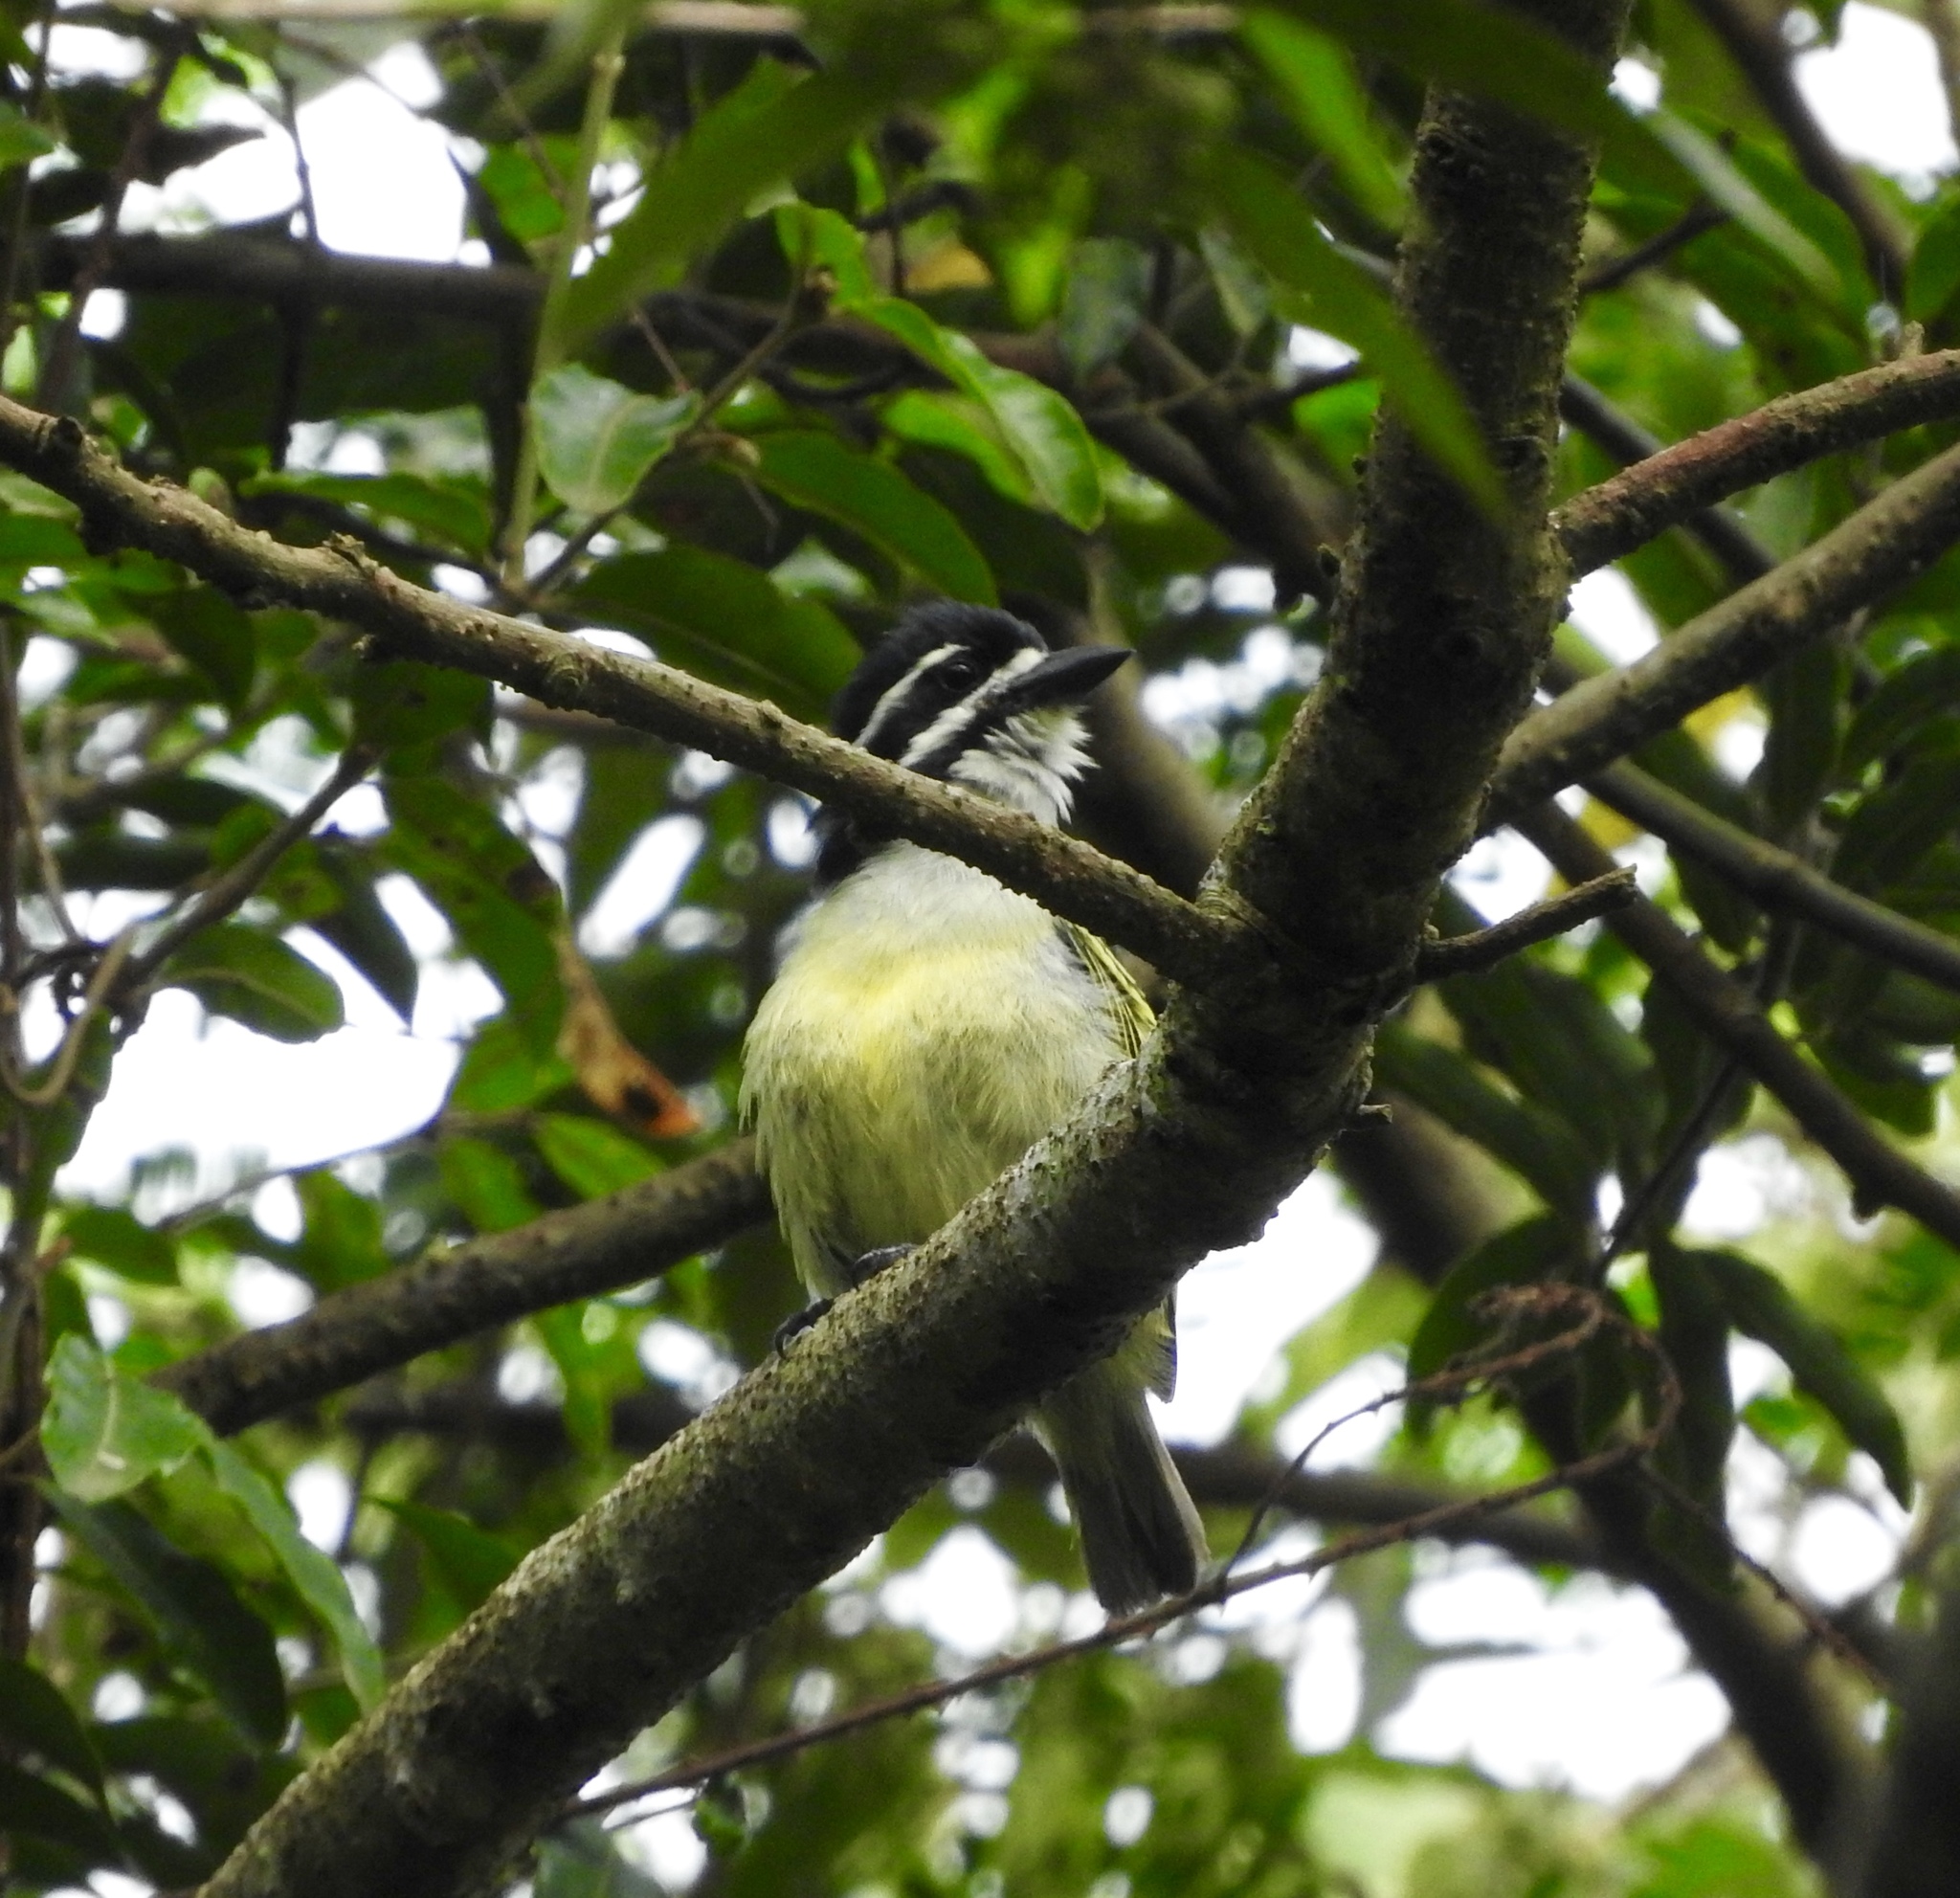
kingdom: Animalia
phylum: Chordata
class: Aves
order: Piciformes
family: Lybiidae
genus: Pogoniulus
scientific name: Pogoniulus bilineatus
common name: Yellow-rumped tinkerbird
